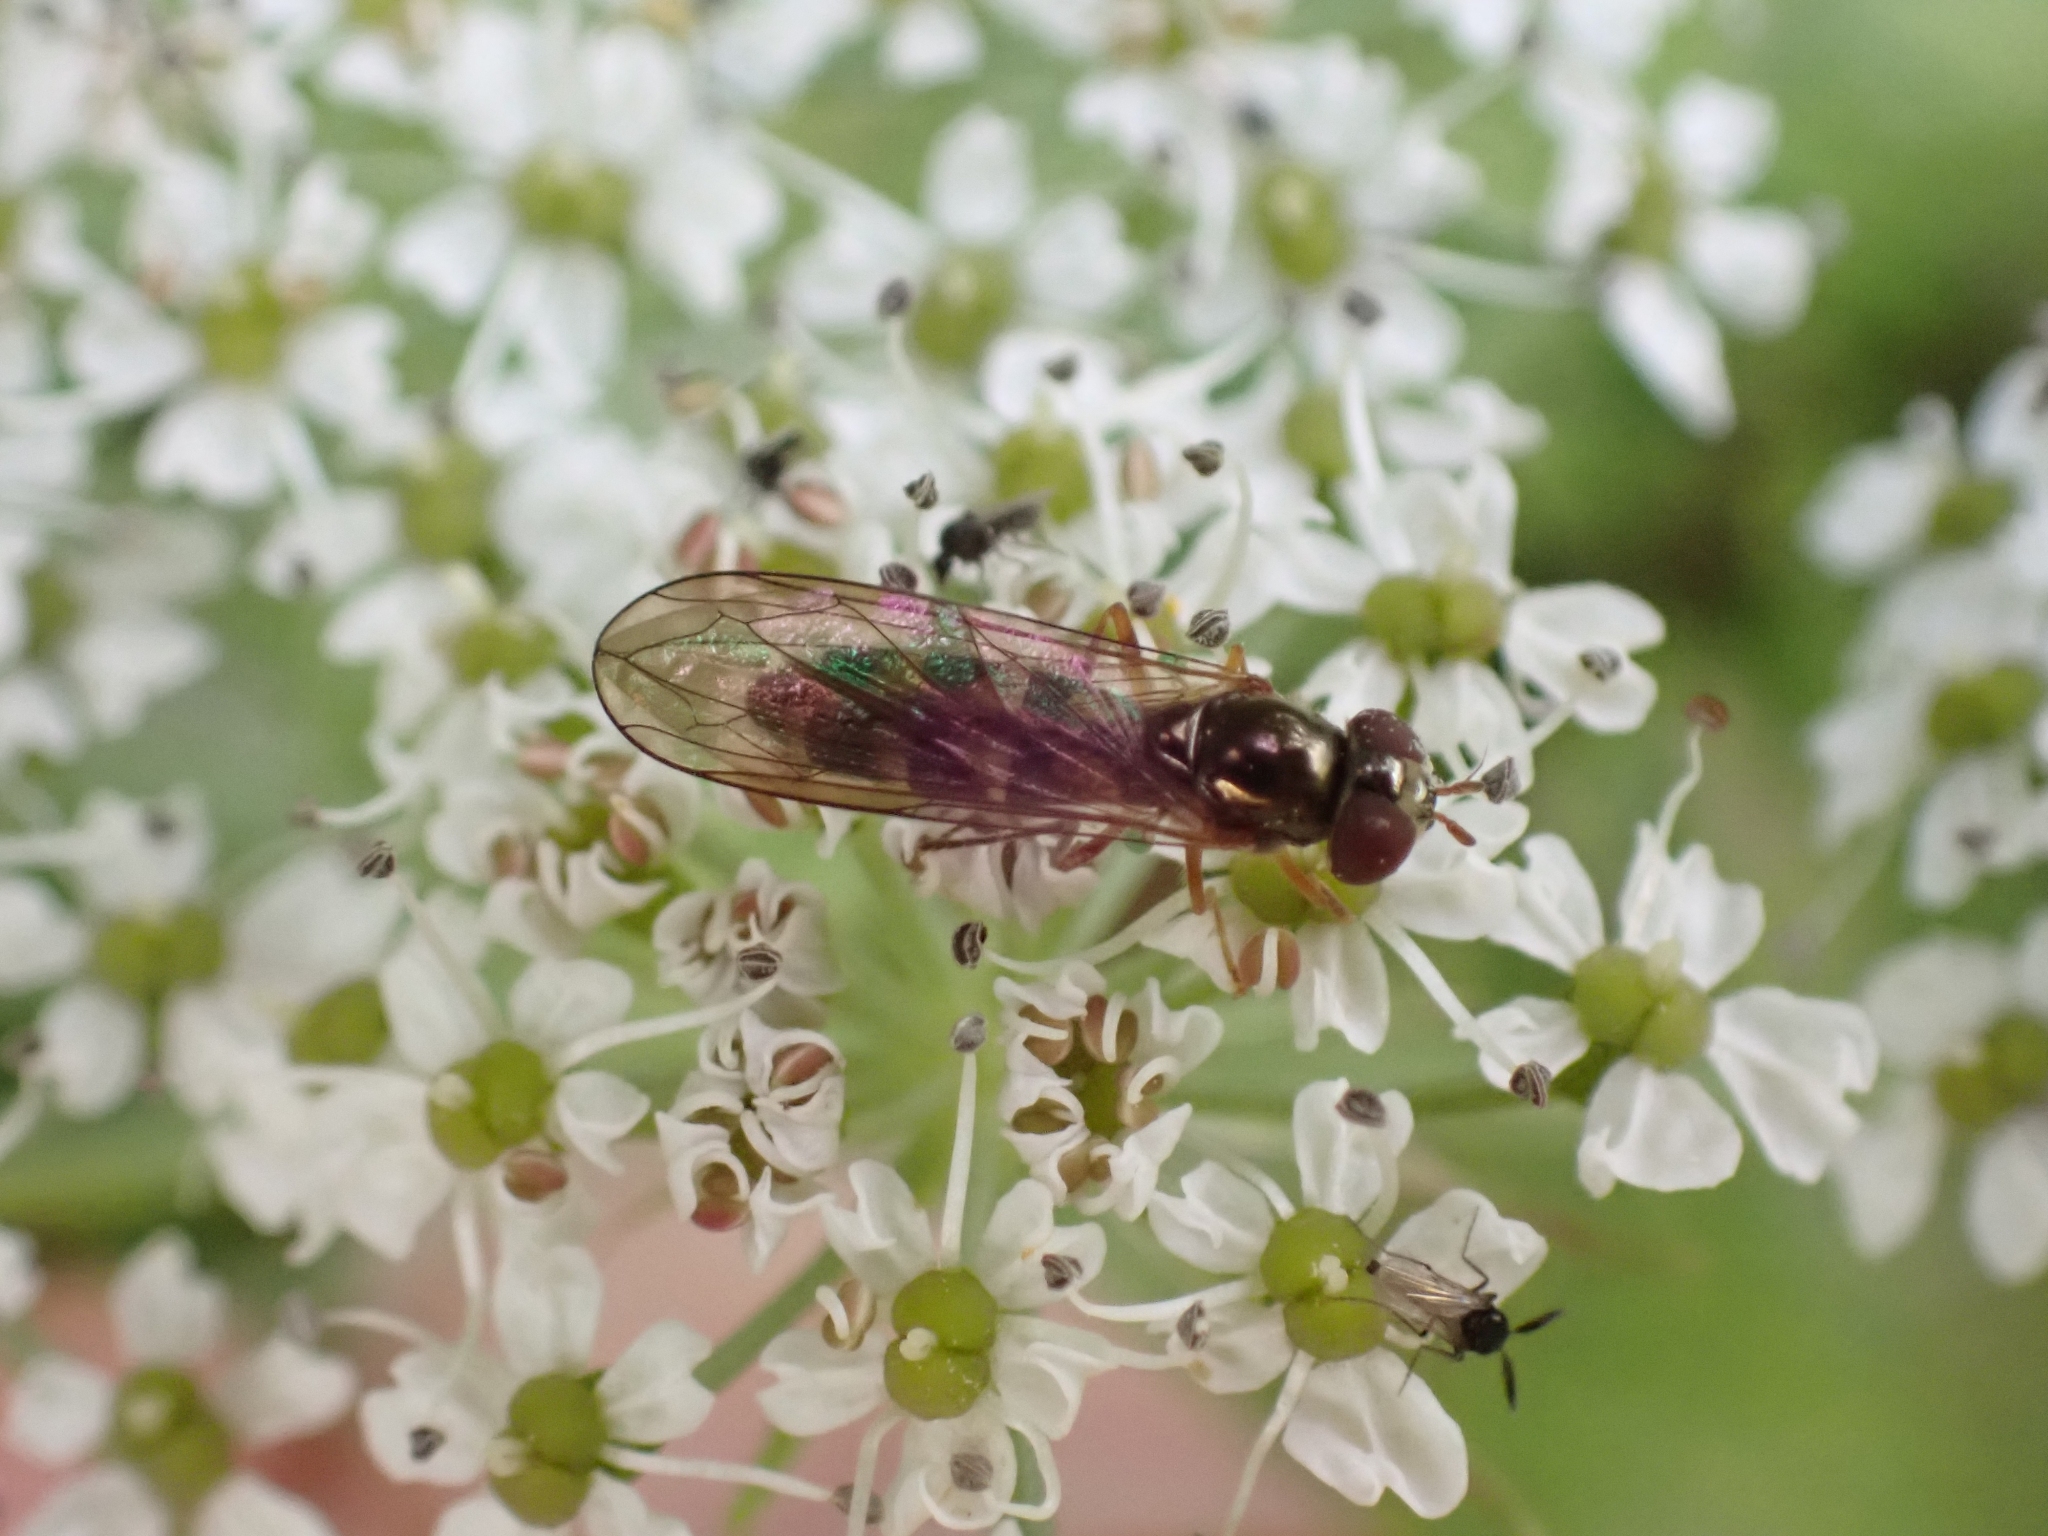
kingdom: Animalia
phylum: Arthropoda
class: Insecta
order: Diptera
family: Syrphidae
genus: Melanostoma
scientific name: Melanostoma mellina
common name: Hover fly
